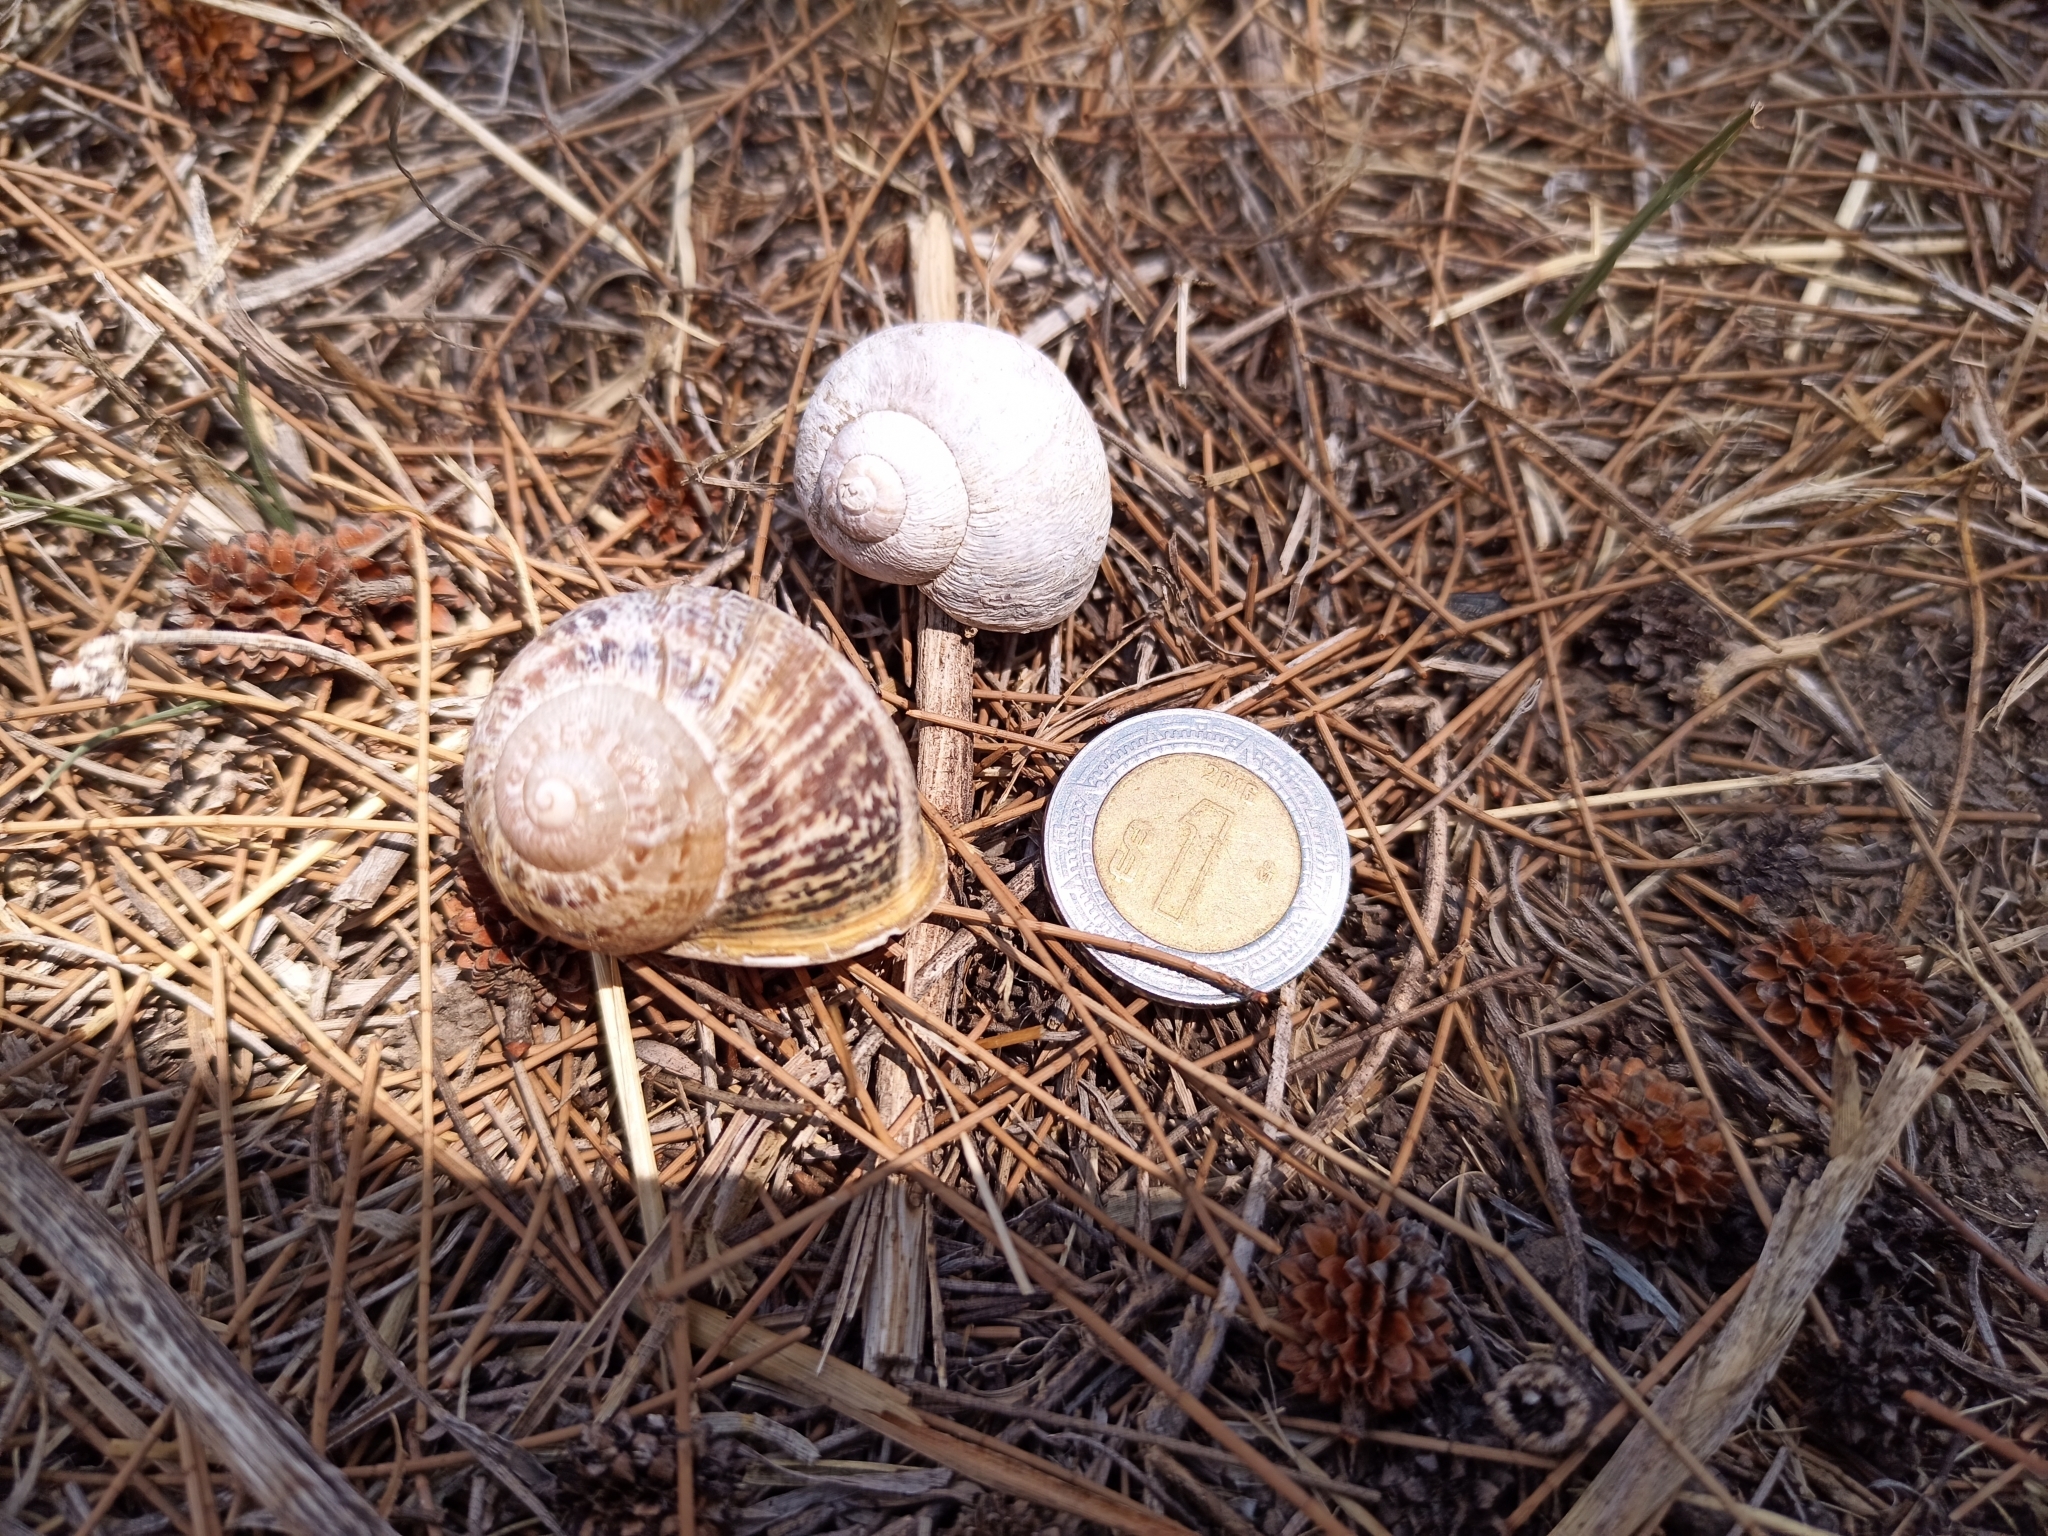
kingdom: Animalia
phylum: Mollusca
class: Gastropoda
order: Stylommatophora
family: Helicidae
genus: Cornu
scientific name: Cornu aspersum
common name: Brown garden snail
